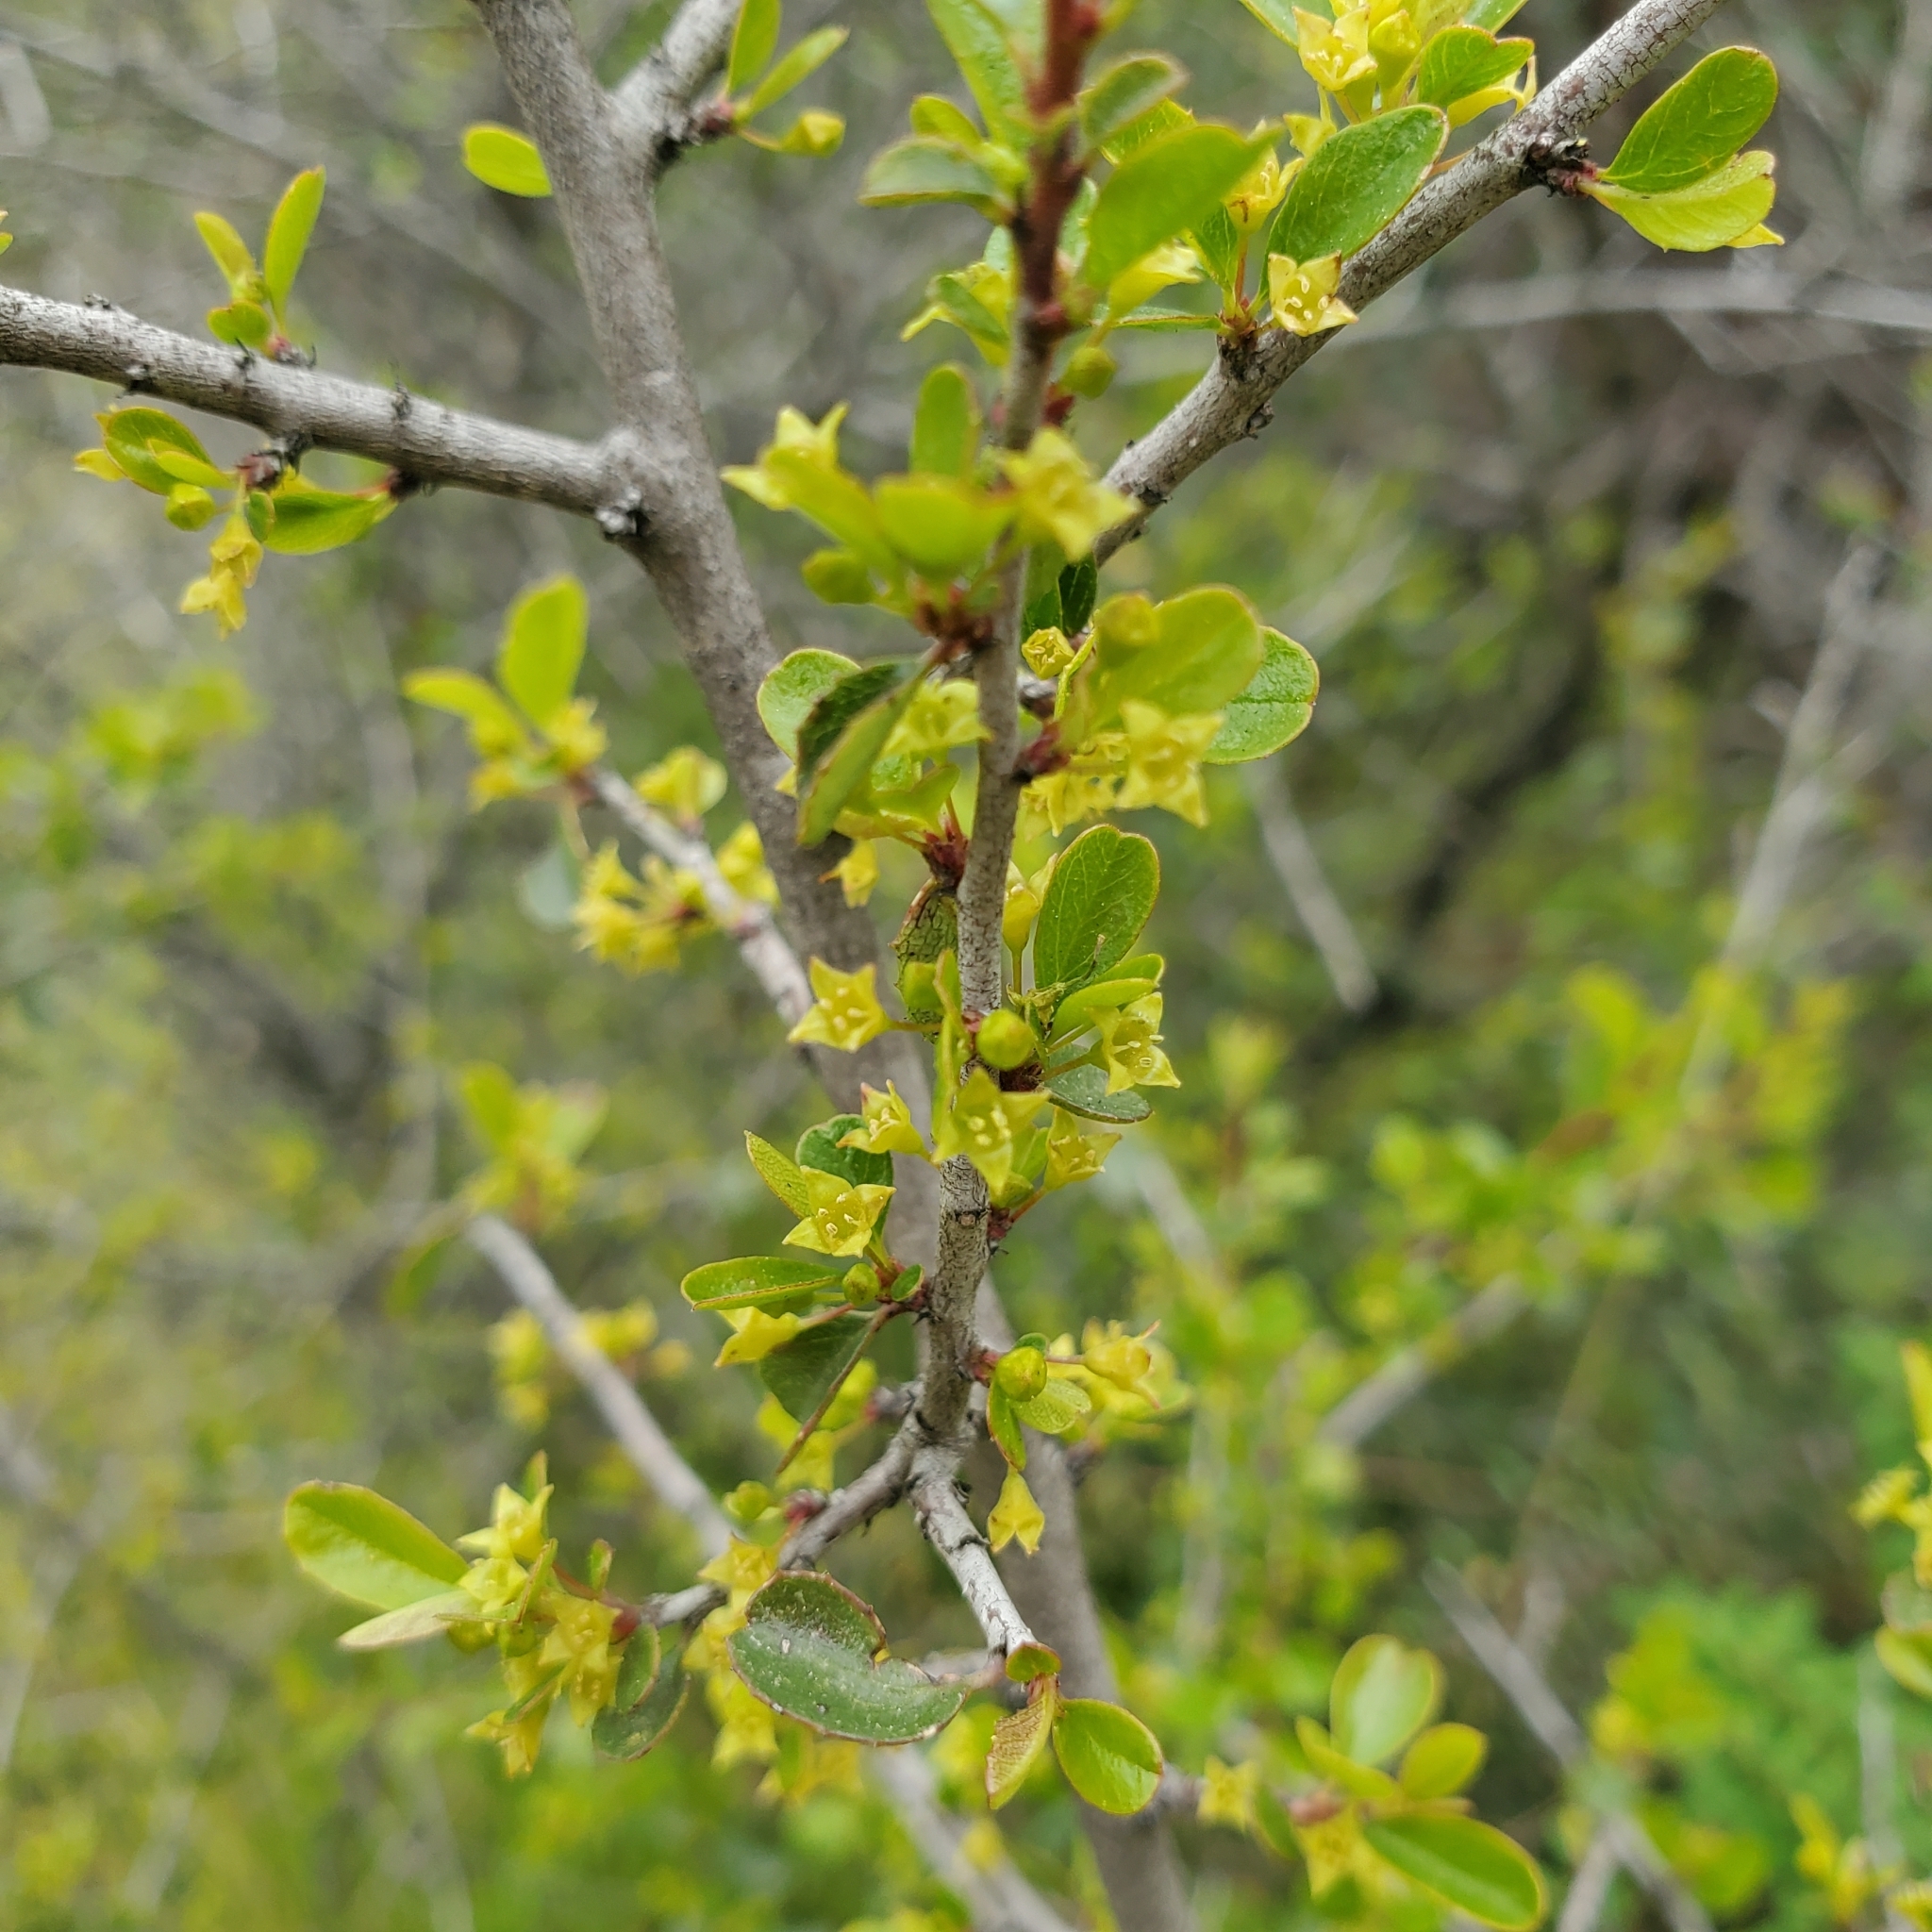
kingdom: Plantae
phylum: Tracheophyta
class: Magnoliopsida
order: Rosales
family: Rhamnaceae
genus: Endotropis
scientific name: Endotropis crocea
